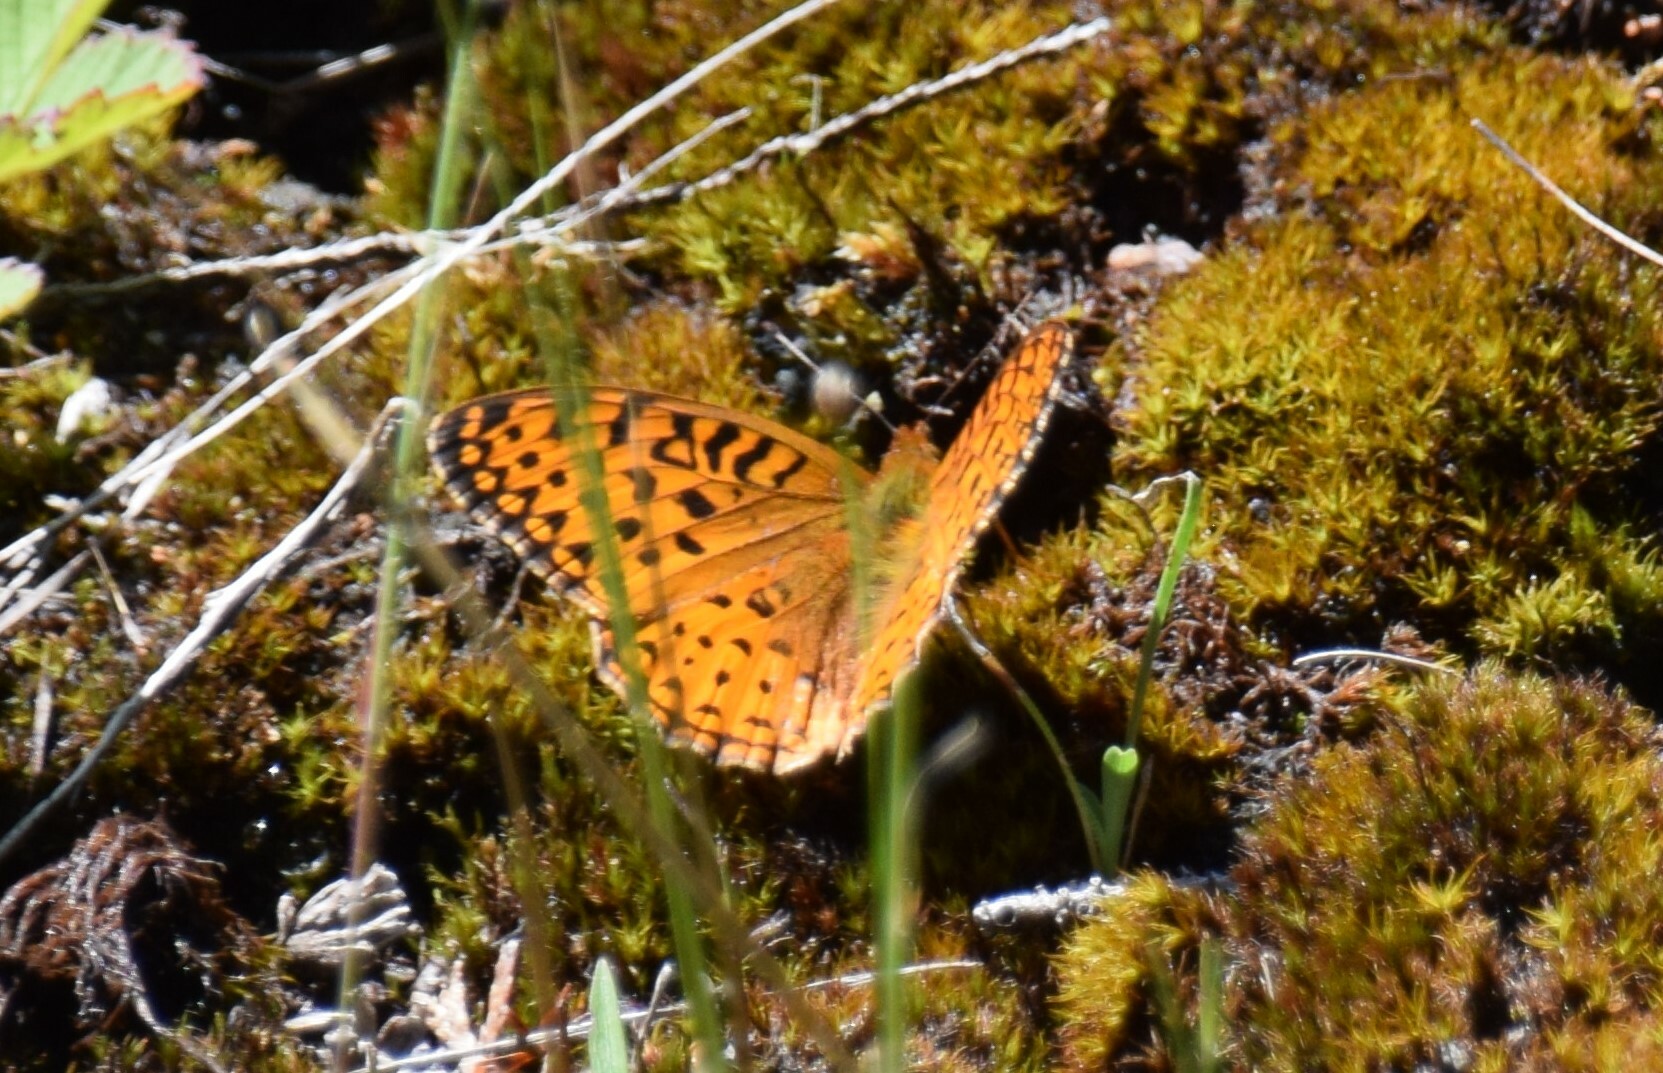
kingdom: Animalia
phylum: Arthropoda
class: Insecta
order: Lepidoptera
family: Nymphalidae
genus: Speyeria
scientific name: Speyeria aphrodite
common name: Aphrodite friitllary
